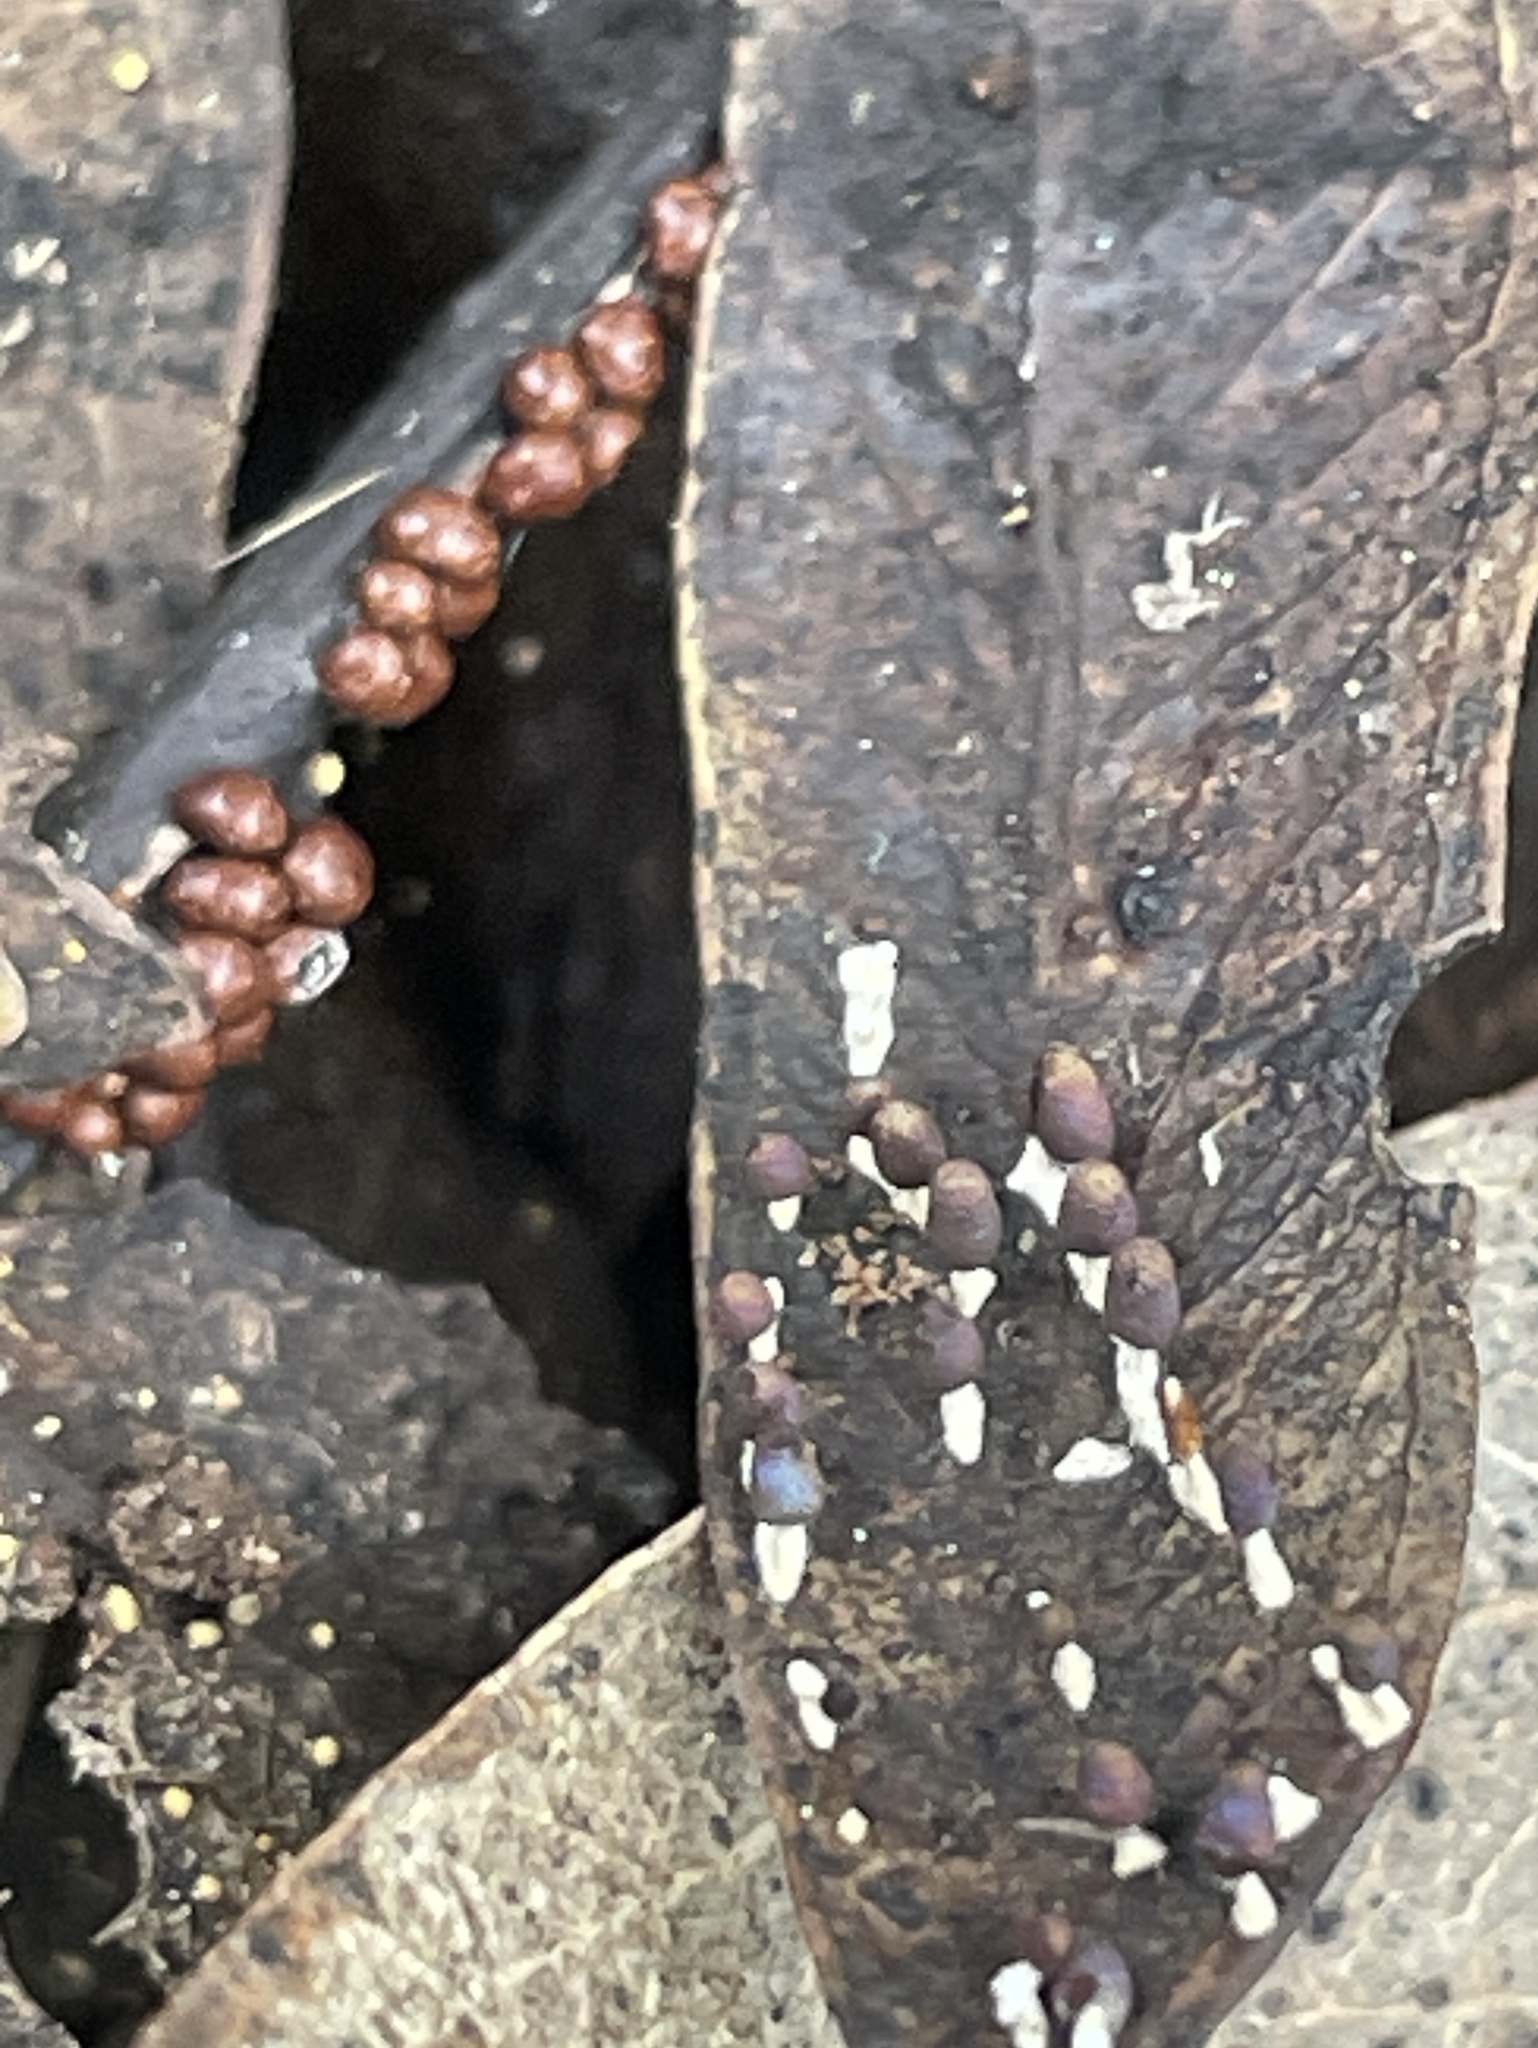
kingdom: Protozoa
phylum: Mycetozoa
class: Myxomycetes
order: Physarales
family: Didymiaceae
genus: Diachea
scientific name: Diachea leucopodia
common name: White-footed slime
